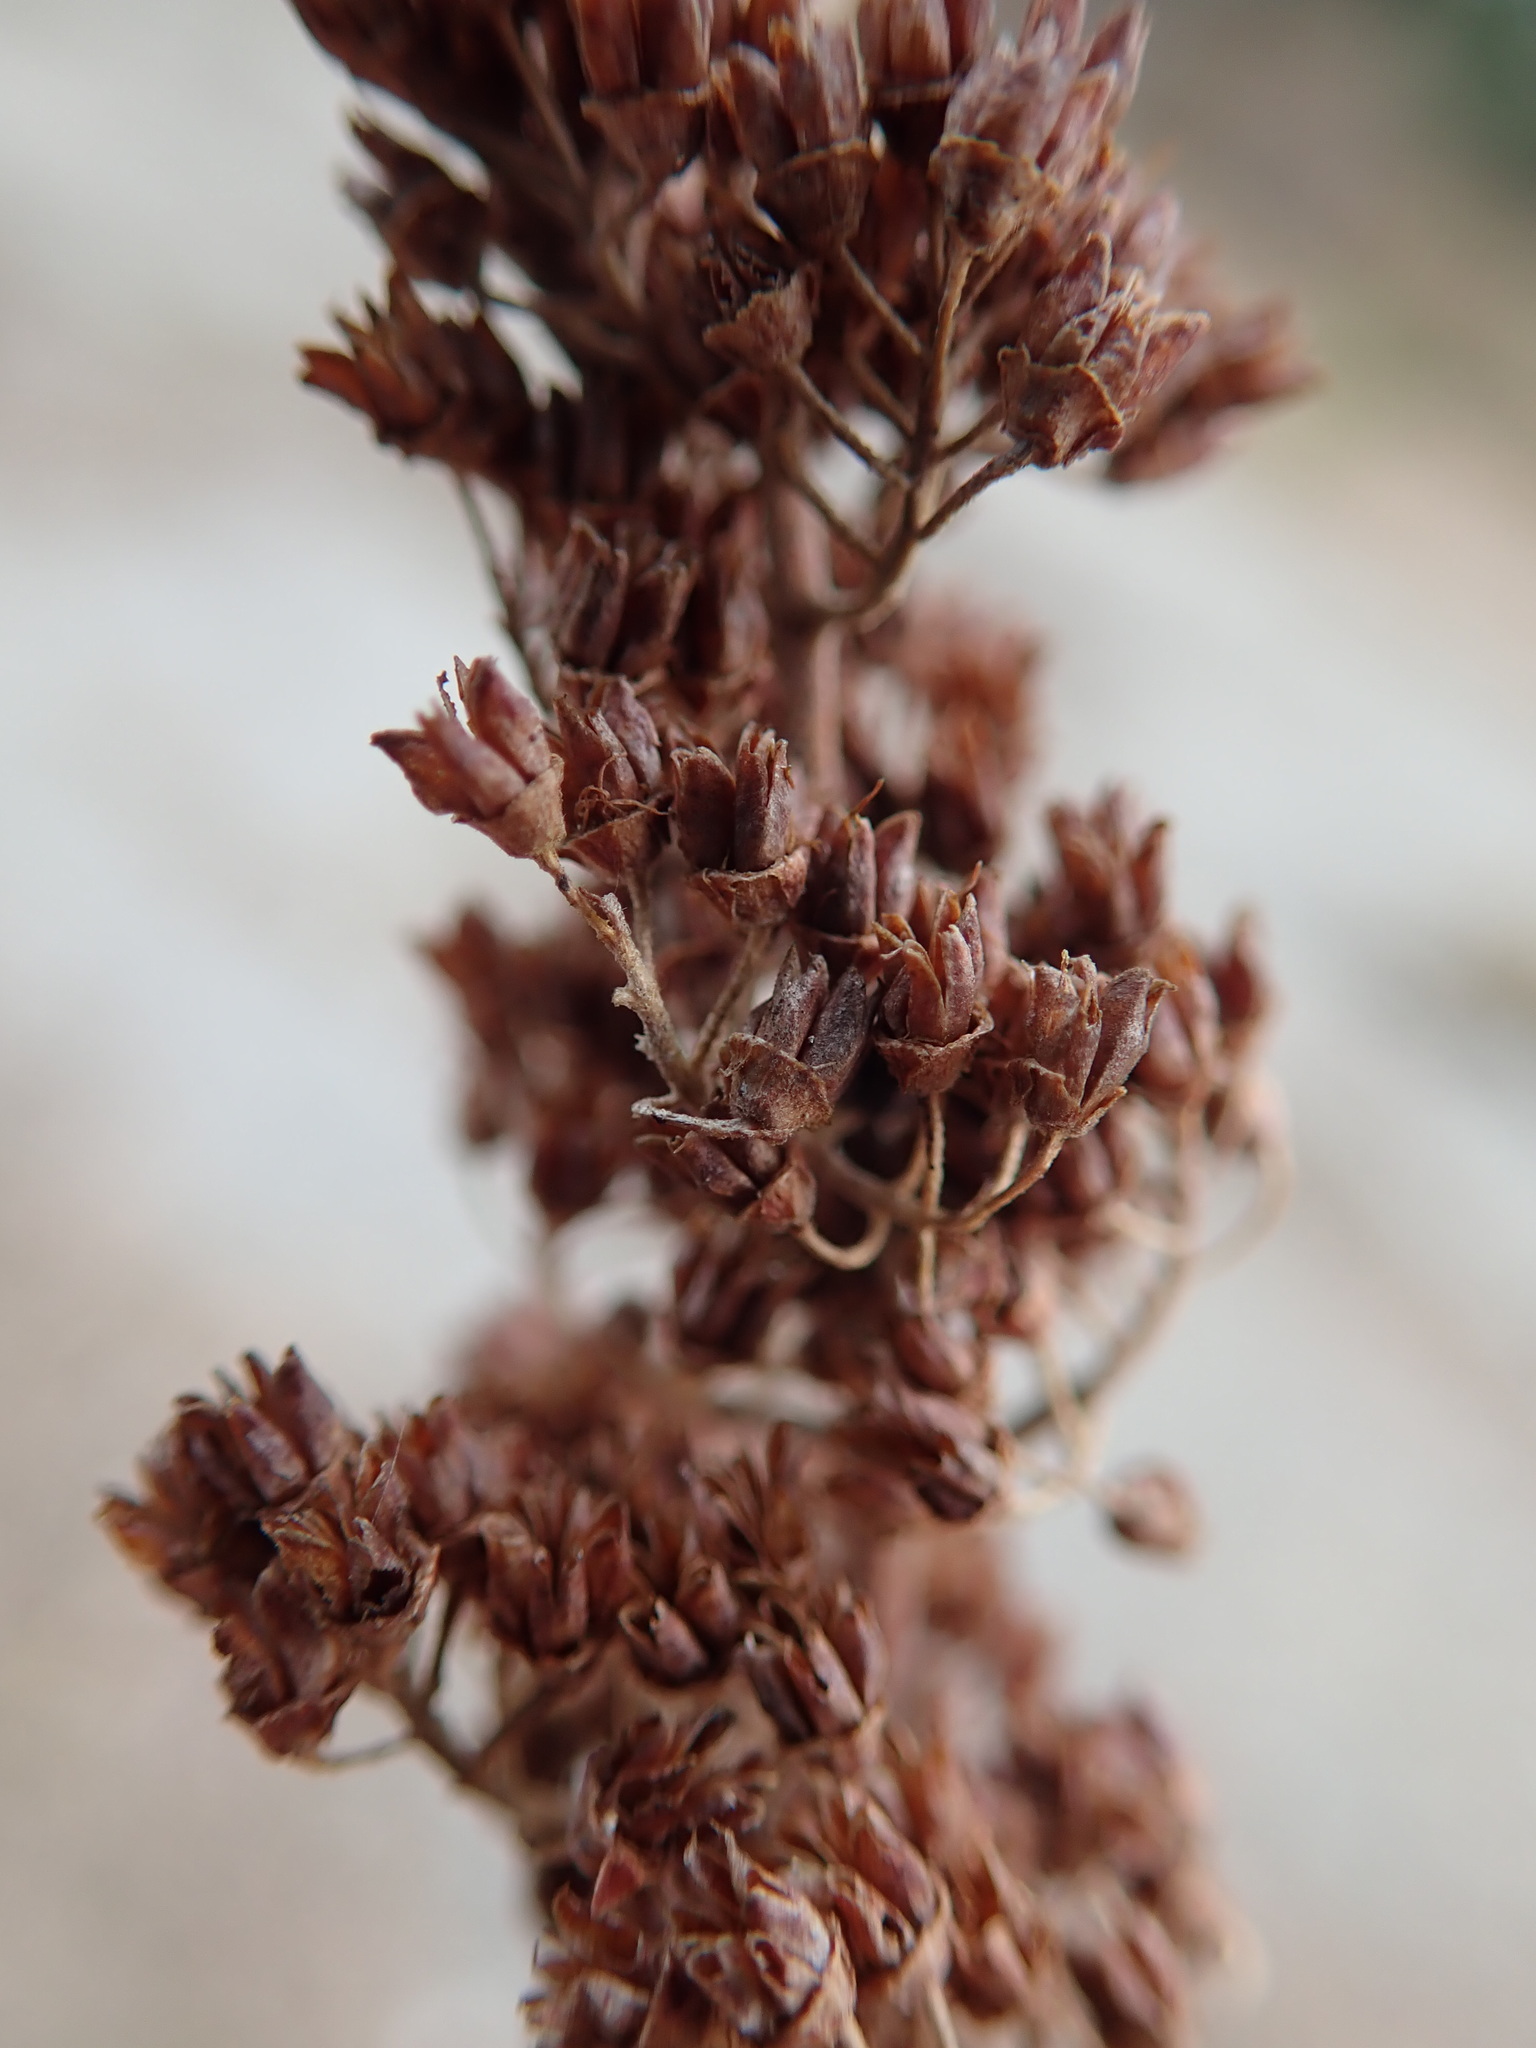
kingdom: Plantae
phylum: Tracheophyta
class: Magnoliopsida
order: Rosales
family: Rosaceae
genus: Spiraea
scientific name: Spiraea douglasii
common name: Steeplebush
